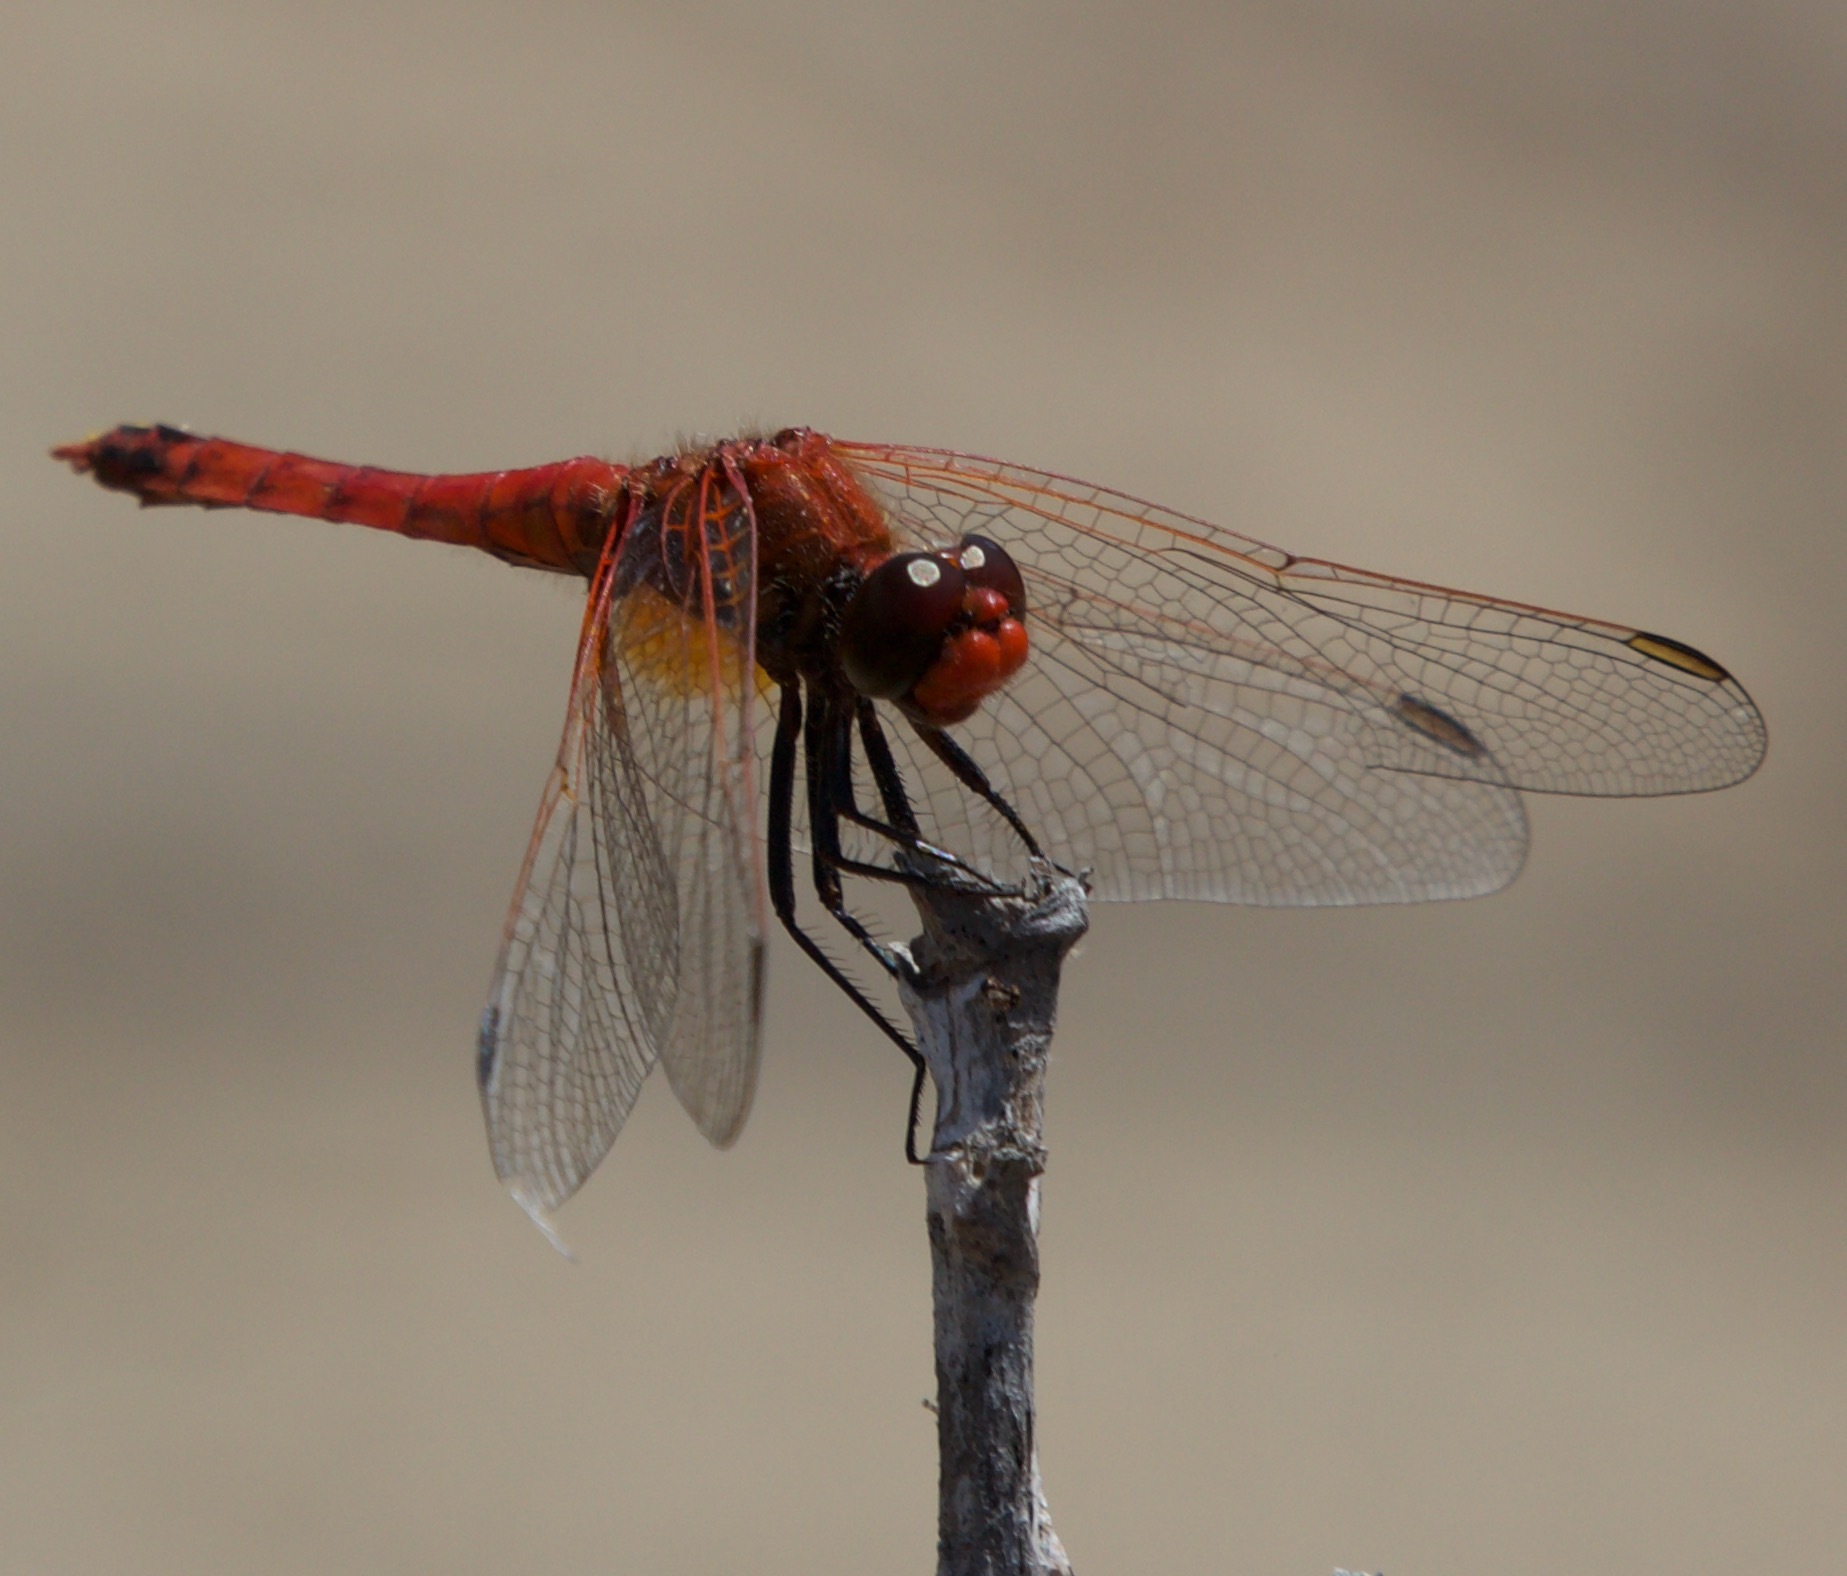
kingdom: Animalia
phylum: Arthropoda
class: Insecta
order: Odonata
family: Libellulidae
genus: Erythrodiplax
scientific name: Erythrodiplax corallina
